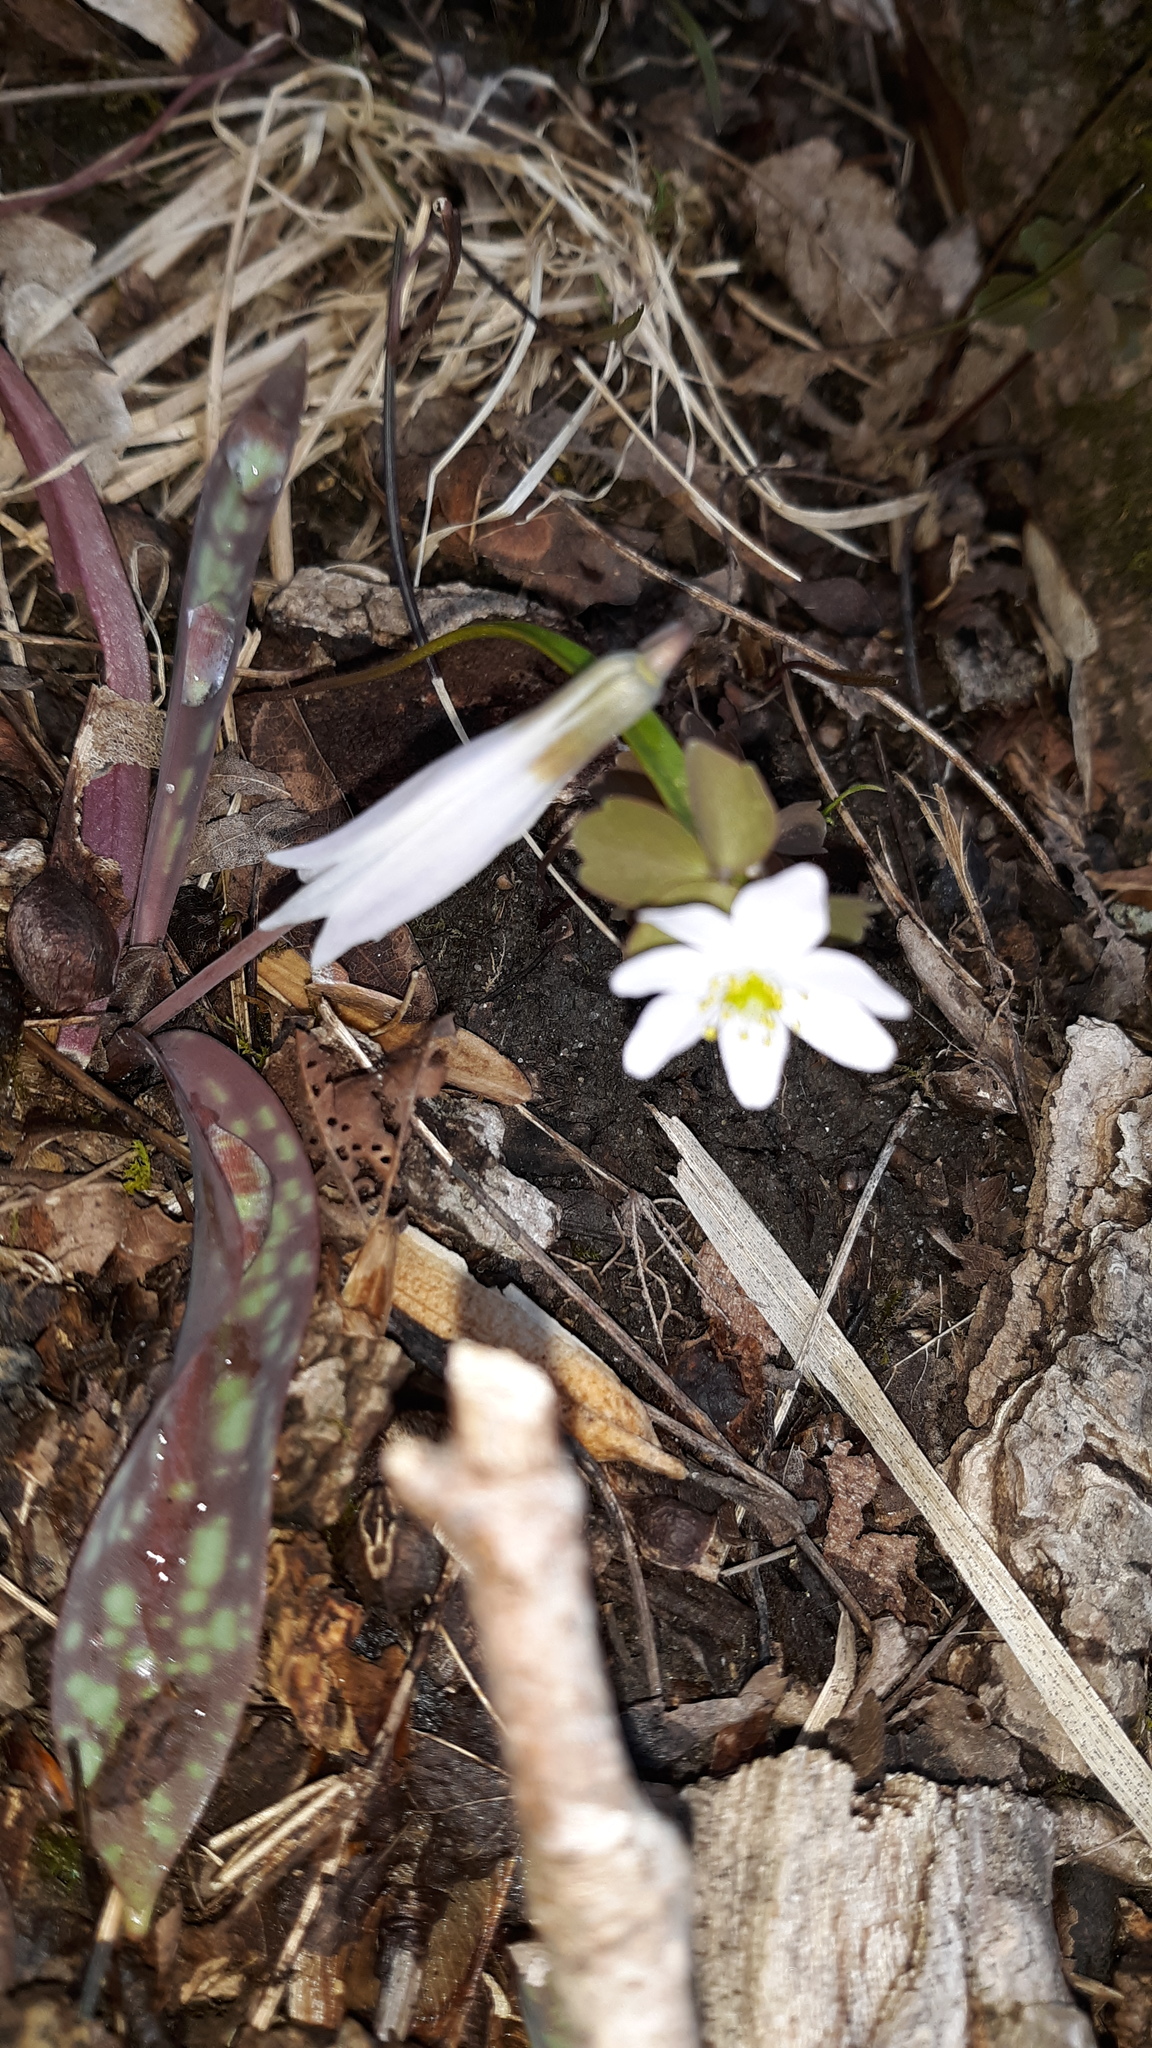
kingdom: Plantae
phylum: Tracheophyta
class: Liliopsida
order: Liliales
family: Liliaceae
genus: Erythronium
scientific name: Erythronium albidum
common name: White trout-lily
